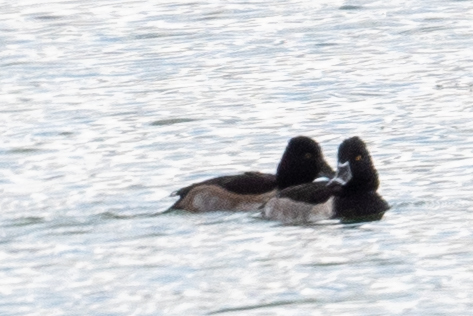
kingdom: Animalia
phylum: Chordata
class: Aves
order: Anseriformes
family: Anatidae
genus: Aythya
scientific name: Aythya collaris
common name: Ring-necked duck
